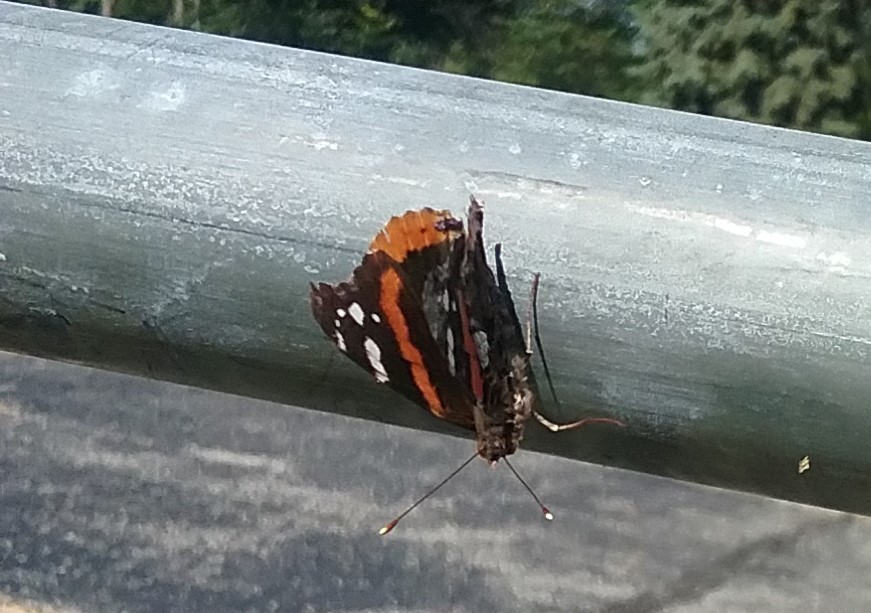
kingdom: Animalia
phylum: Arthropoda
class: Insecta
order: Lepidoptera
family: Nymphalidae
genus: Vanessa
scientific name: Vanessa atalanta
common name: Red admiral
